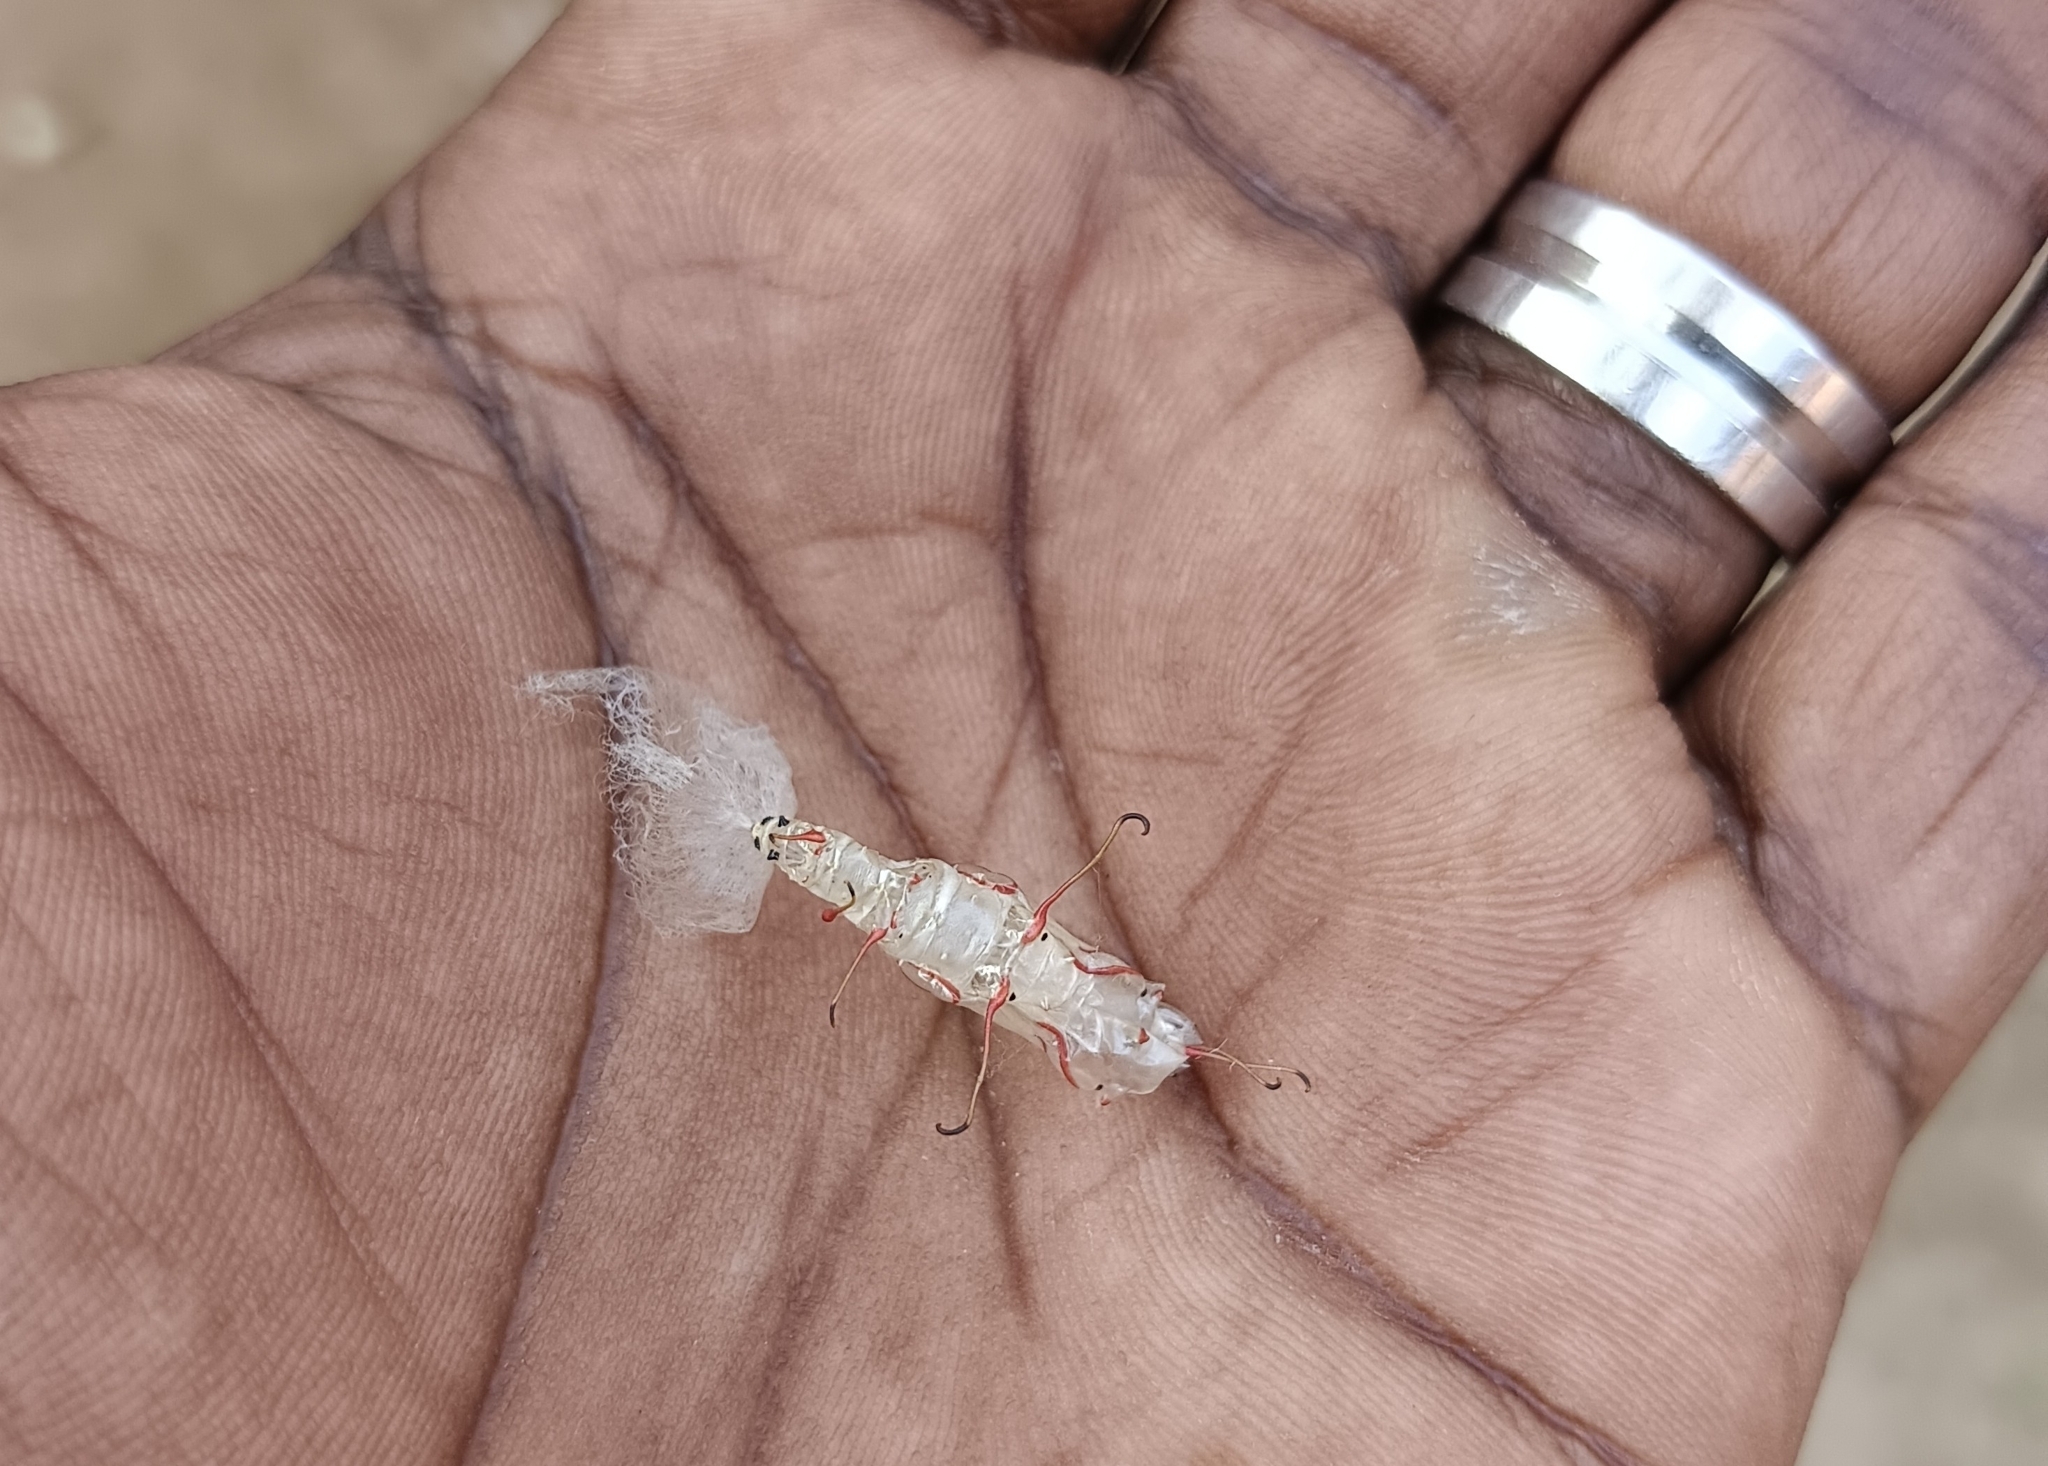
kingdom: Animalia
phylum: Arthropoda
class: Insecta
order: Lepidoptera
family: Nymphalidae
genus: Cupha
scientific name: Cupha erymanthis
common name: Rustic
